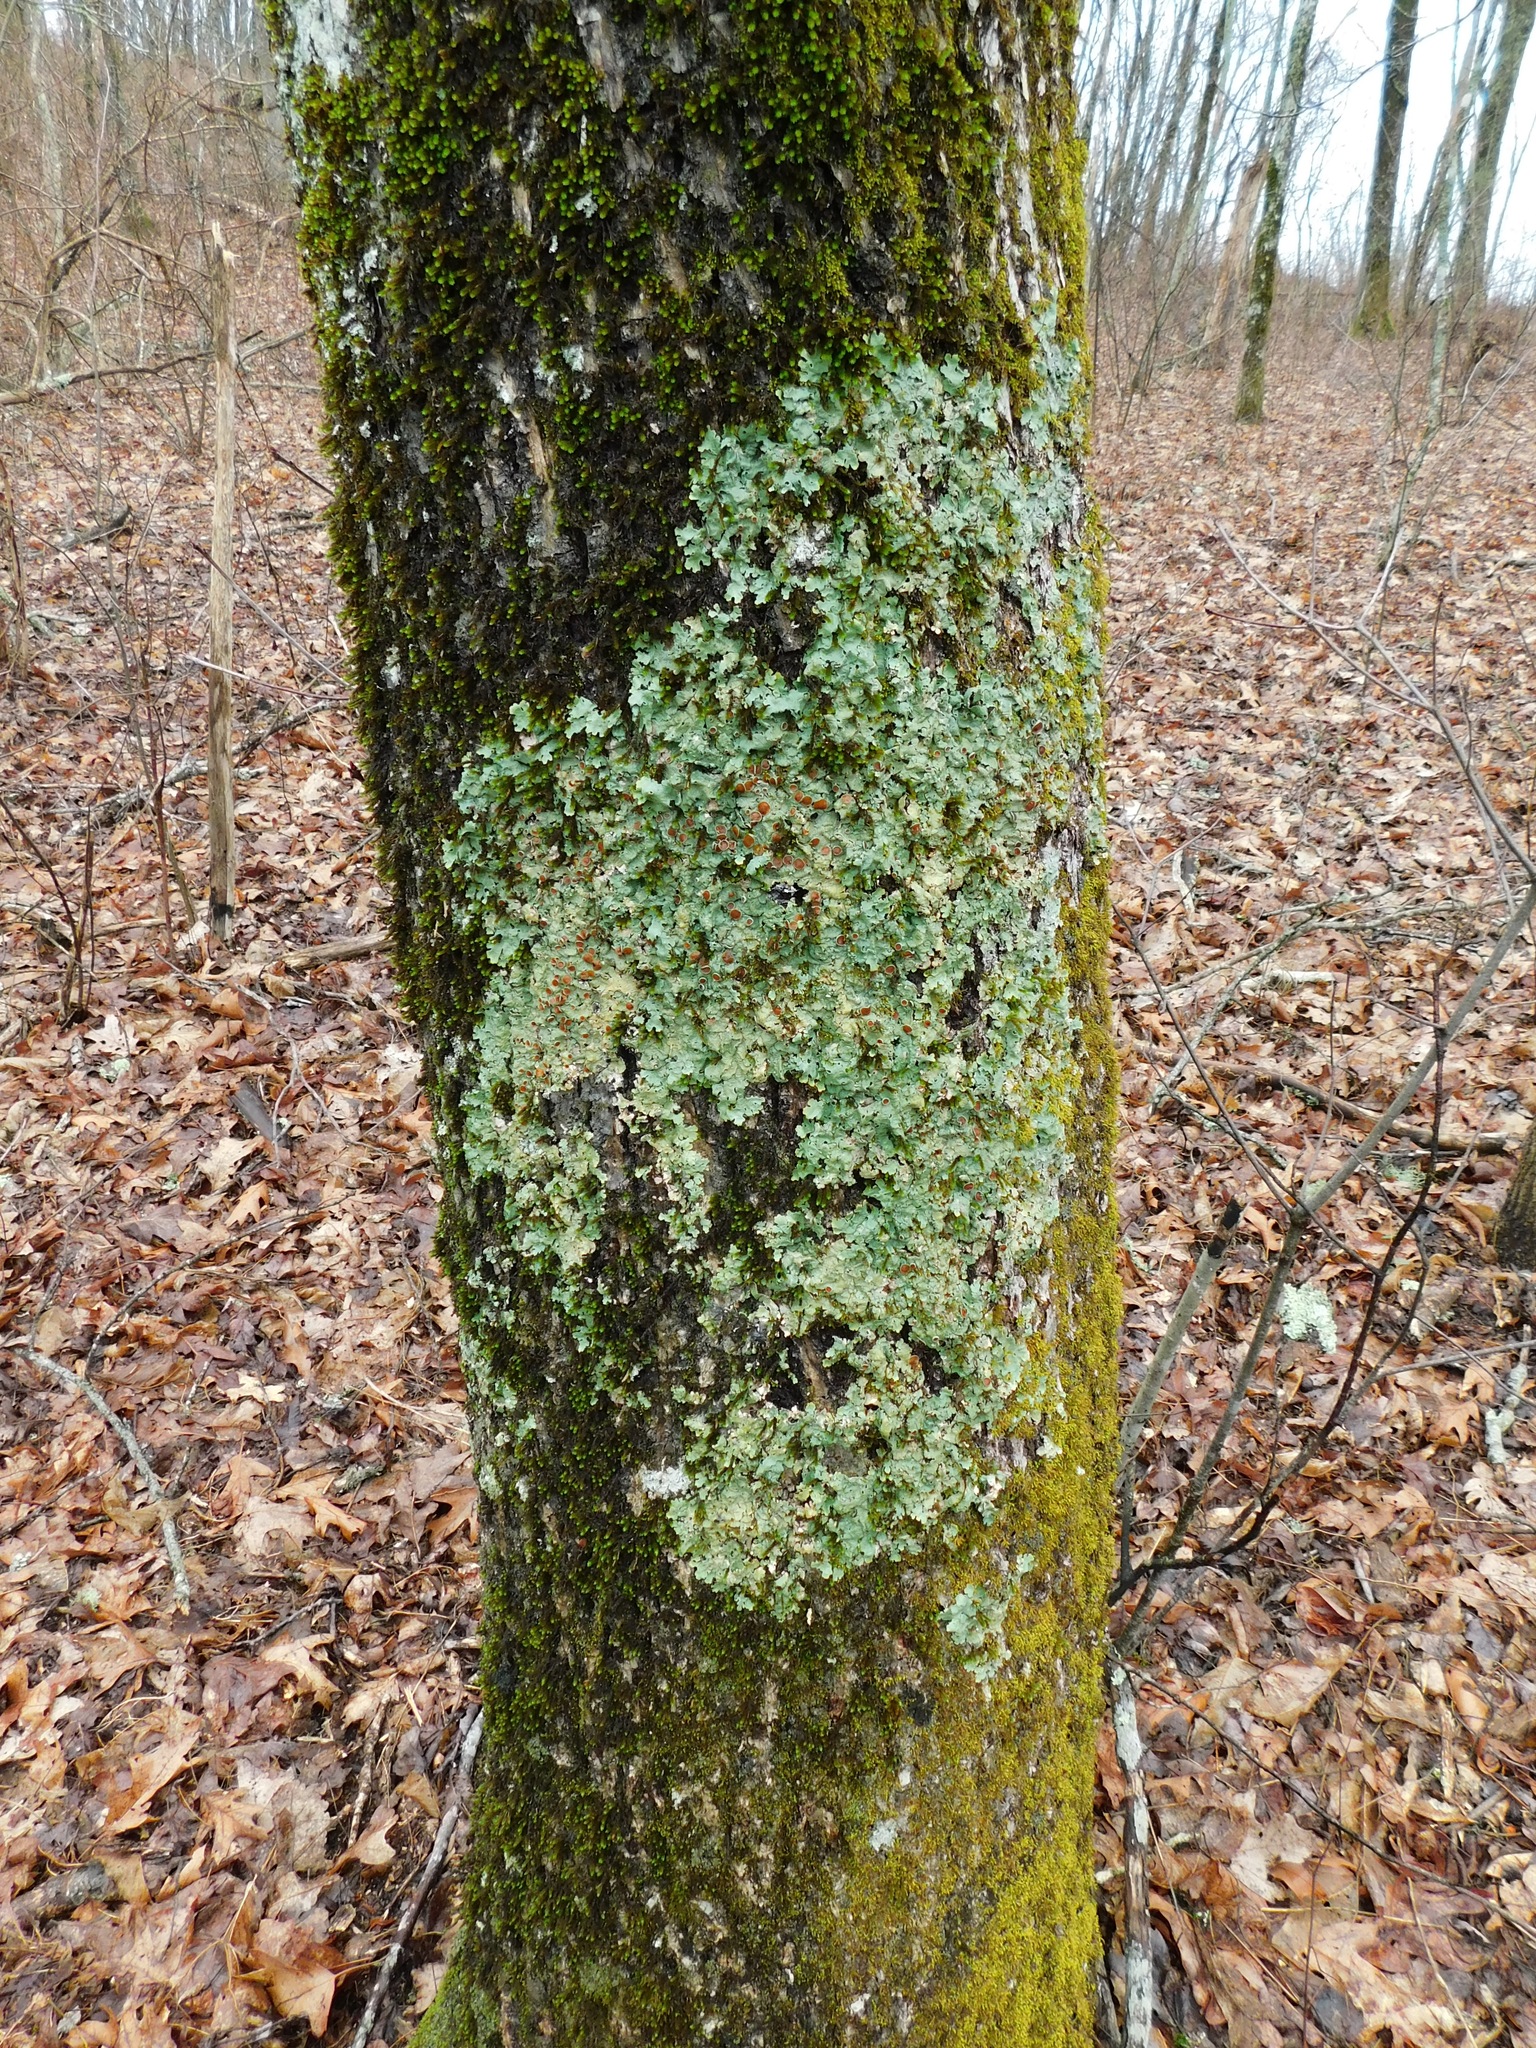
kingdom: Fungi
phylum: Ascomycota
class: Lecanoromycetes
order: Peltigerales
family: Lobariaceae
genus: Ricasolia
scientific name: Ricasolia quercizans
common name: Smooth lungwort
